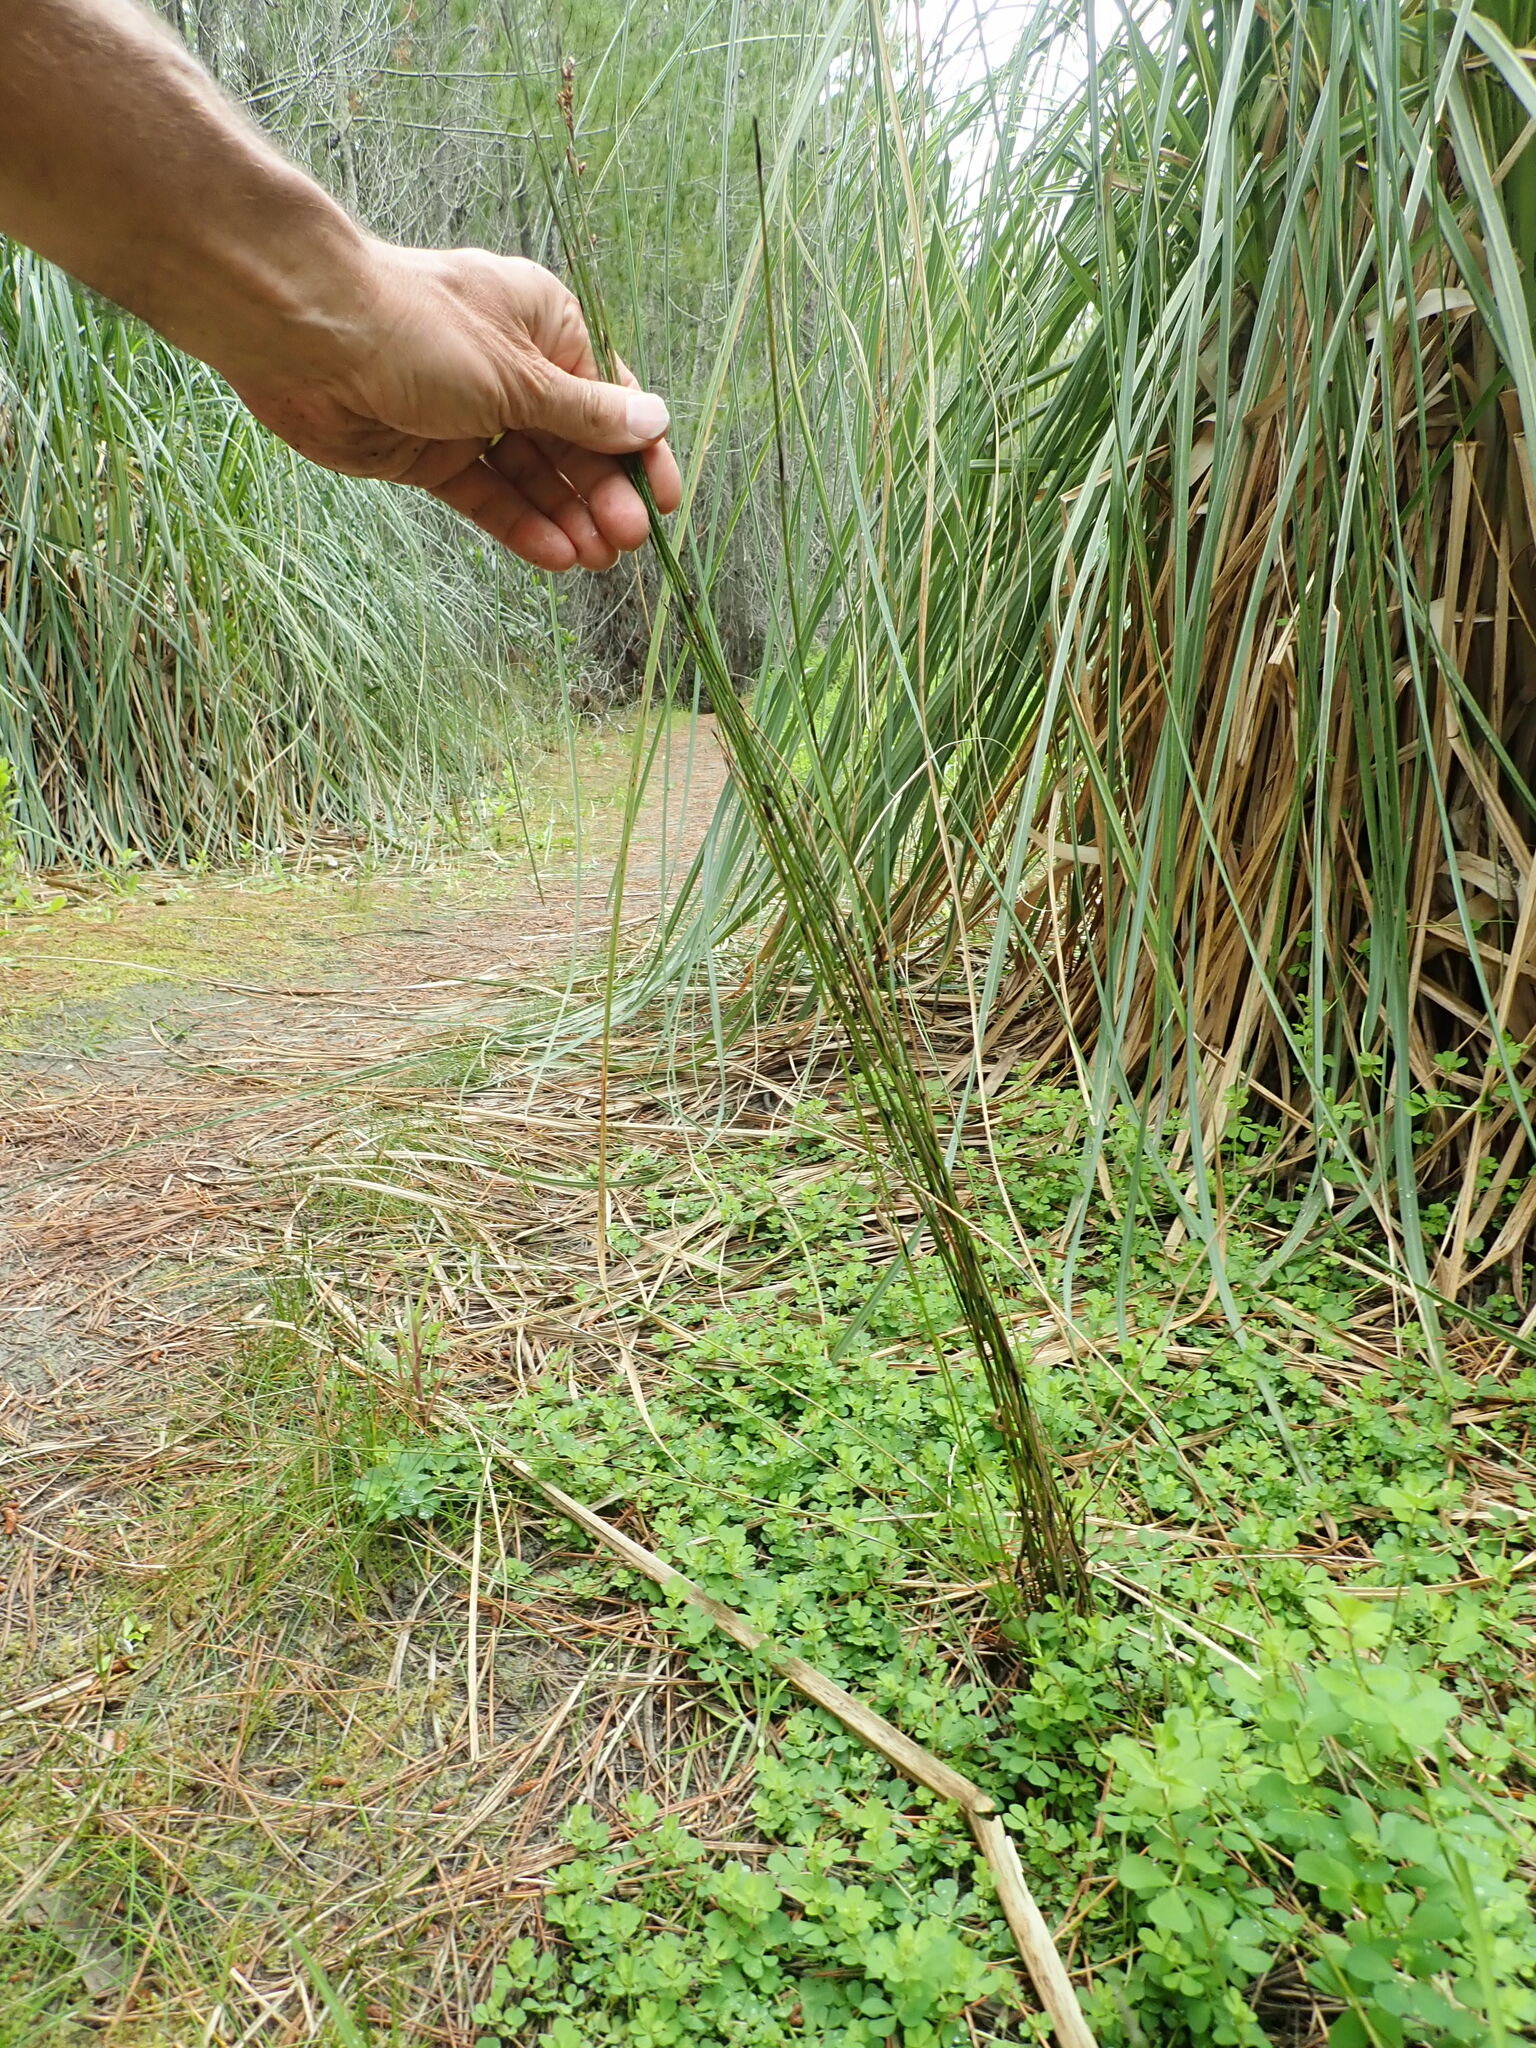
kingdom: Plantae
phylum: Tracheophyta
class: Liliopsida
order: Poales
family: Restionaceae
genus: Apodasmia
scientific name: Apodasmia similis
